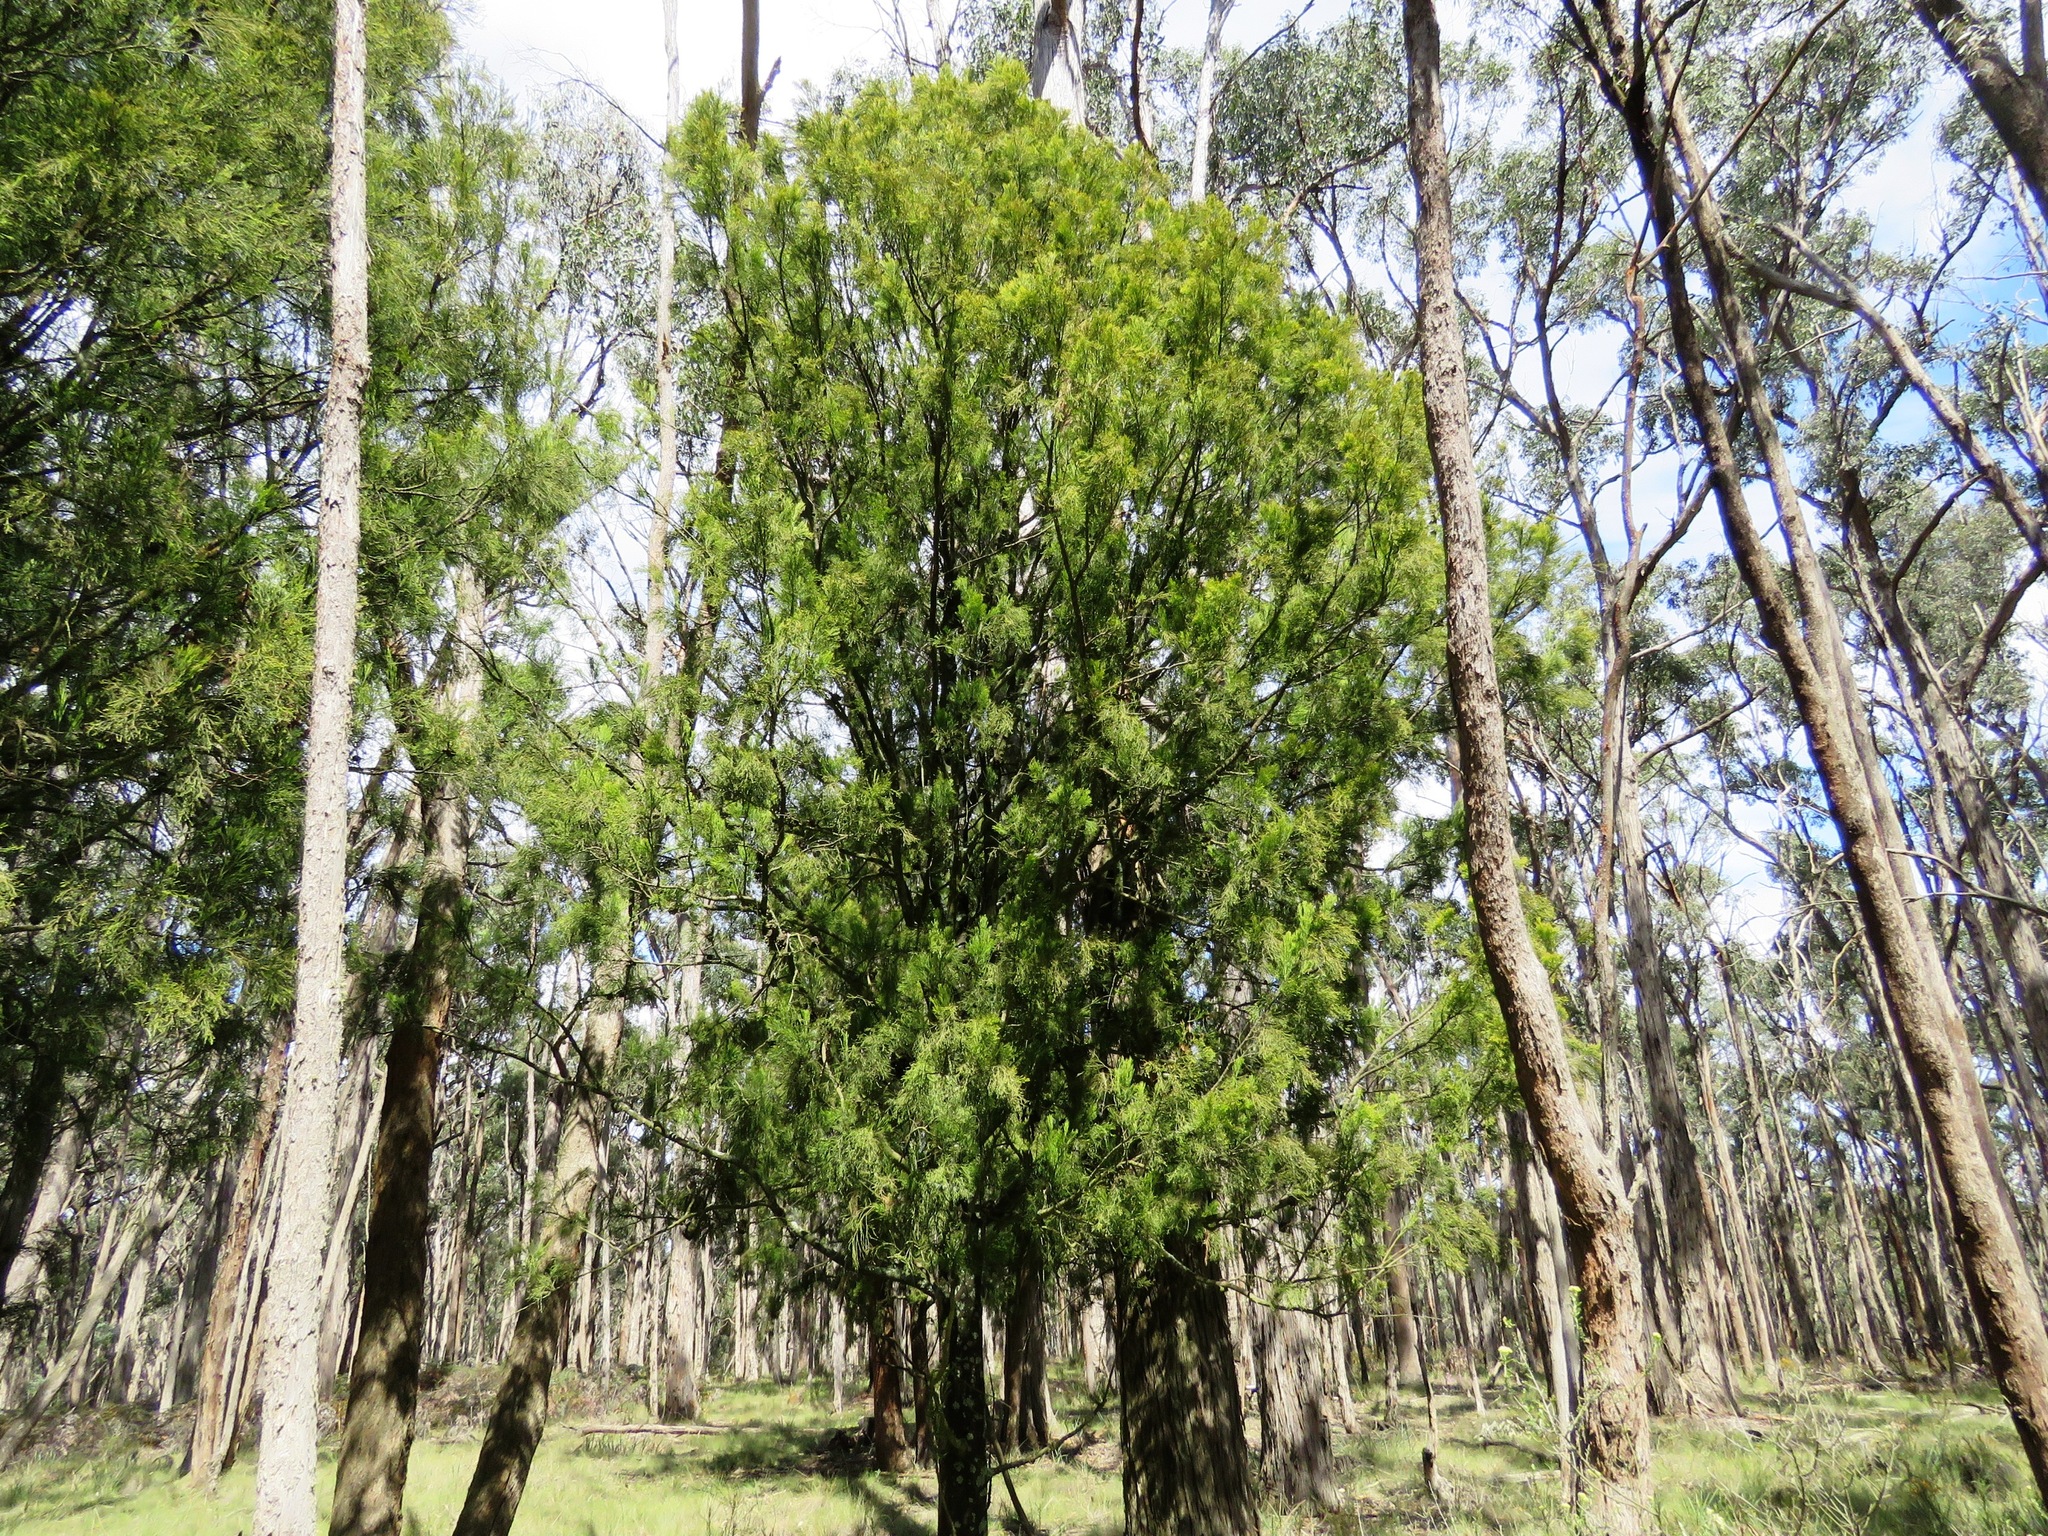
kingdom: Plantae
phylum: Tracheophyta
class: Magnoliopsida
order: Santalales
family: Santalaceae
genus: Exocarpos
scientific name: Exocarpos cupressiformis
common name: Cherry ballart
